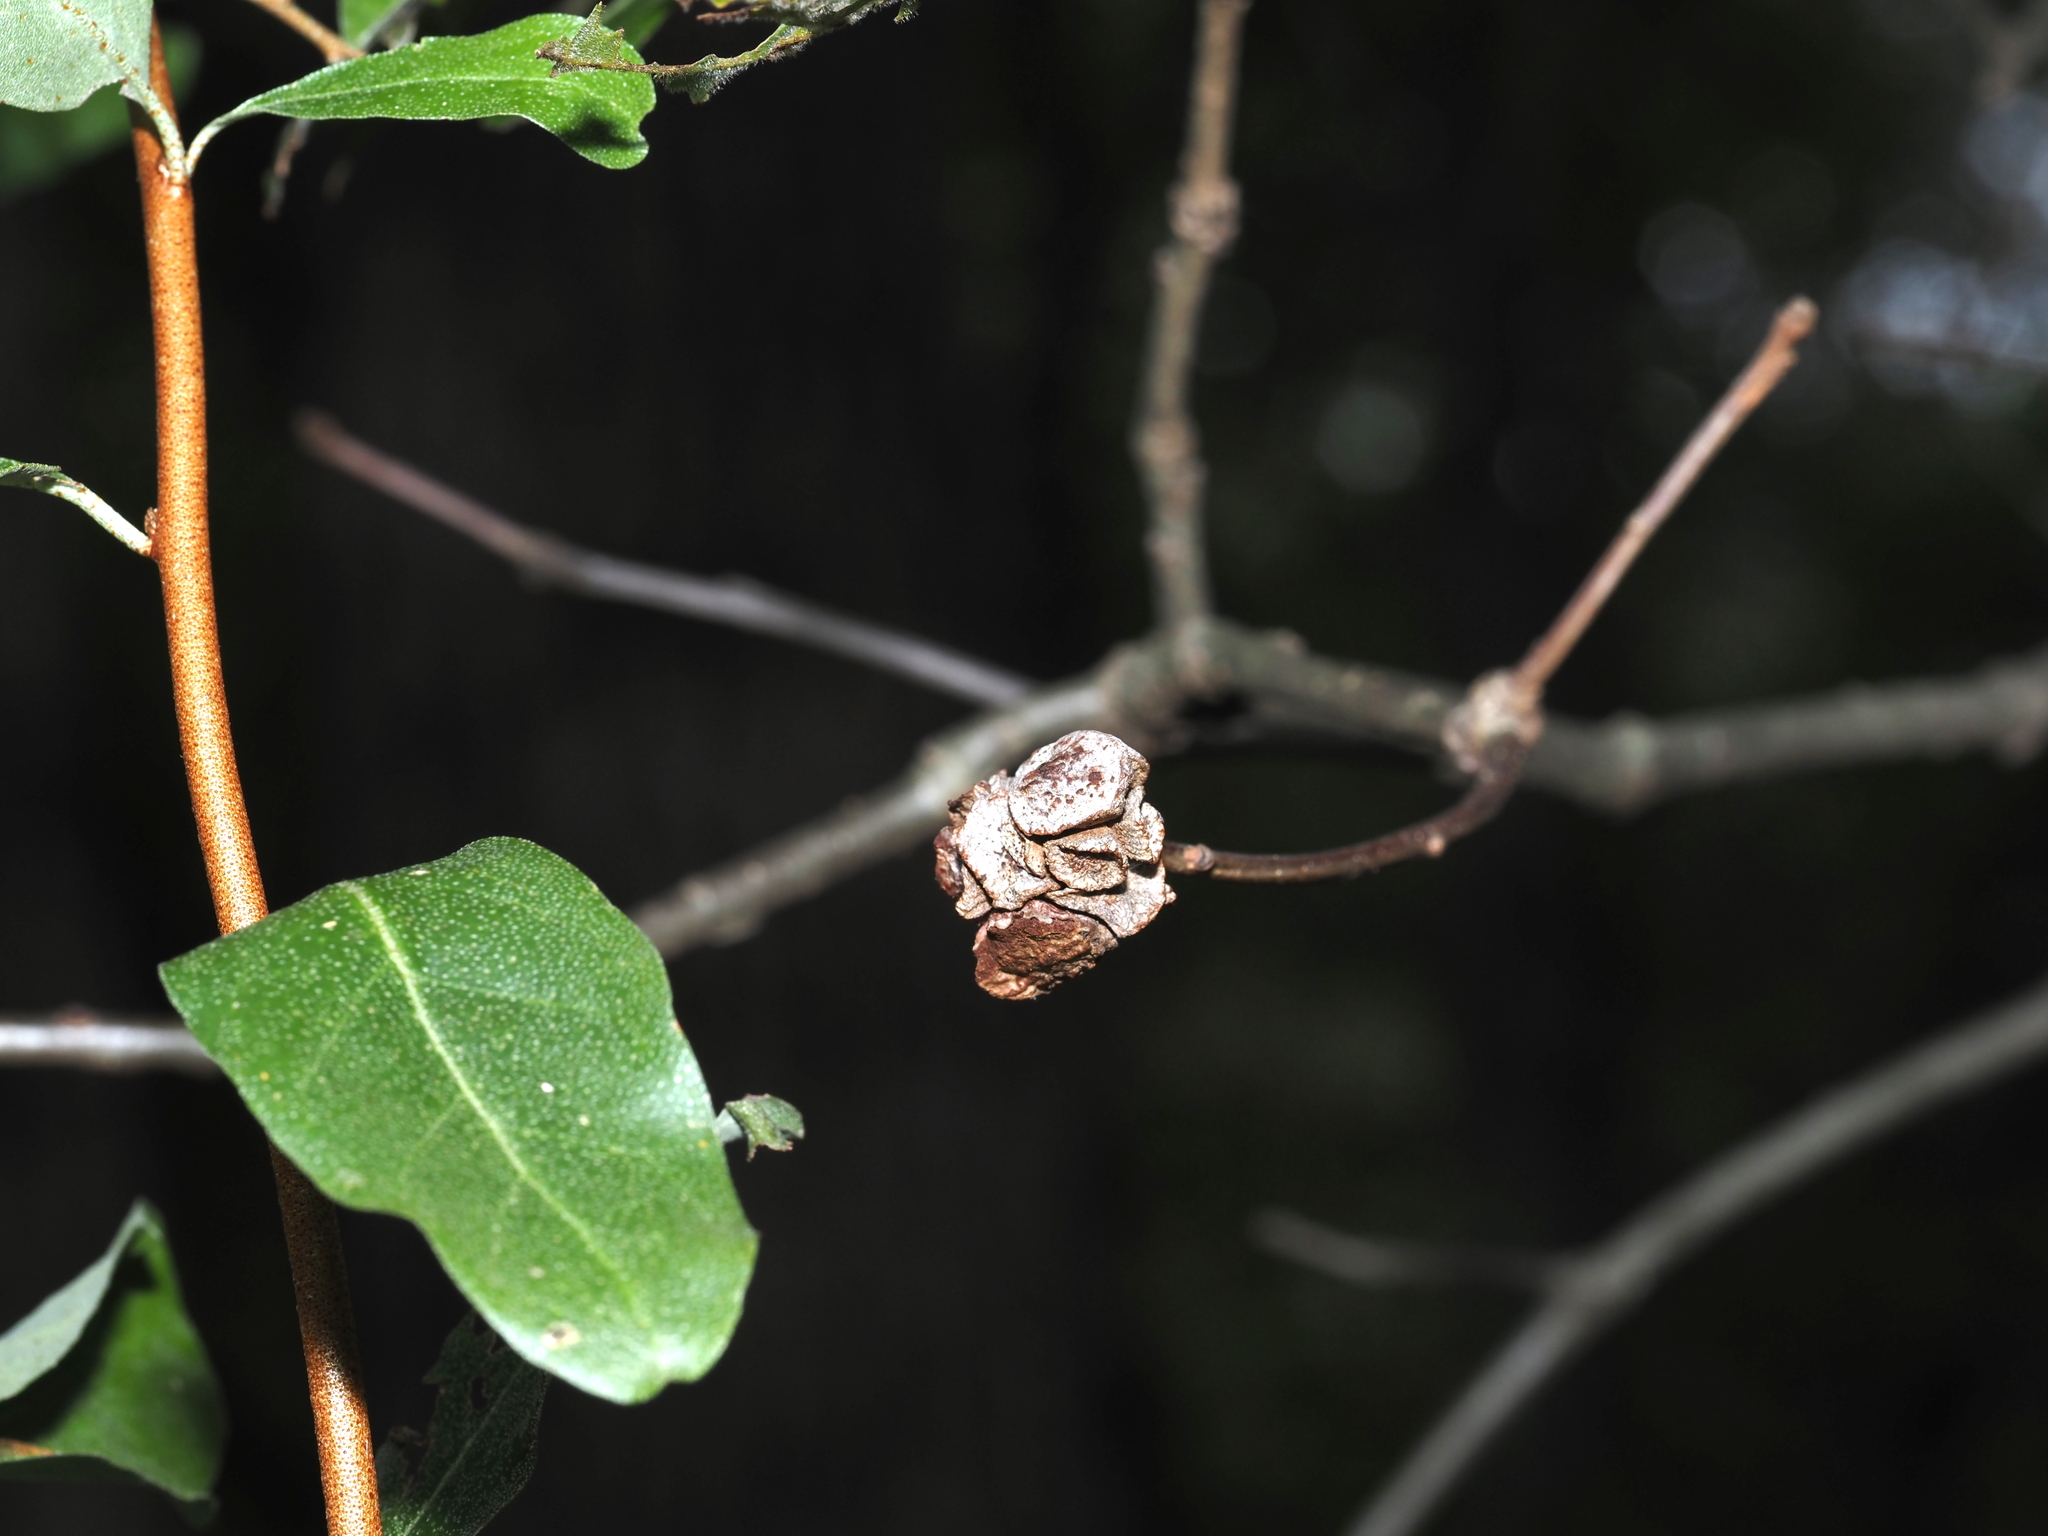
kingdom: Animalia
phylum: Arthropoda
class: Insecta
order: Hymenoptera
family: Cynipidae
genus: Andricus
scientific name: Andricus
